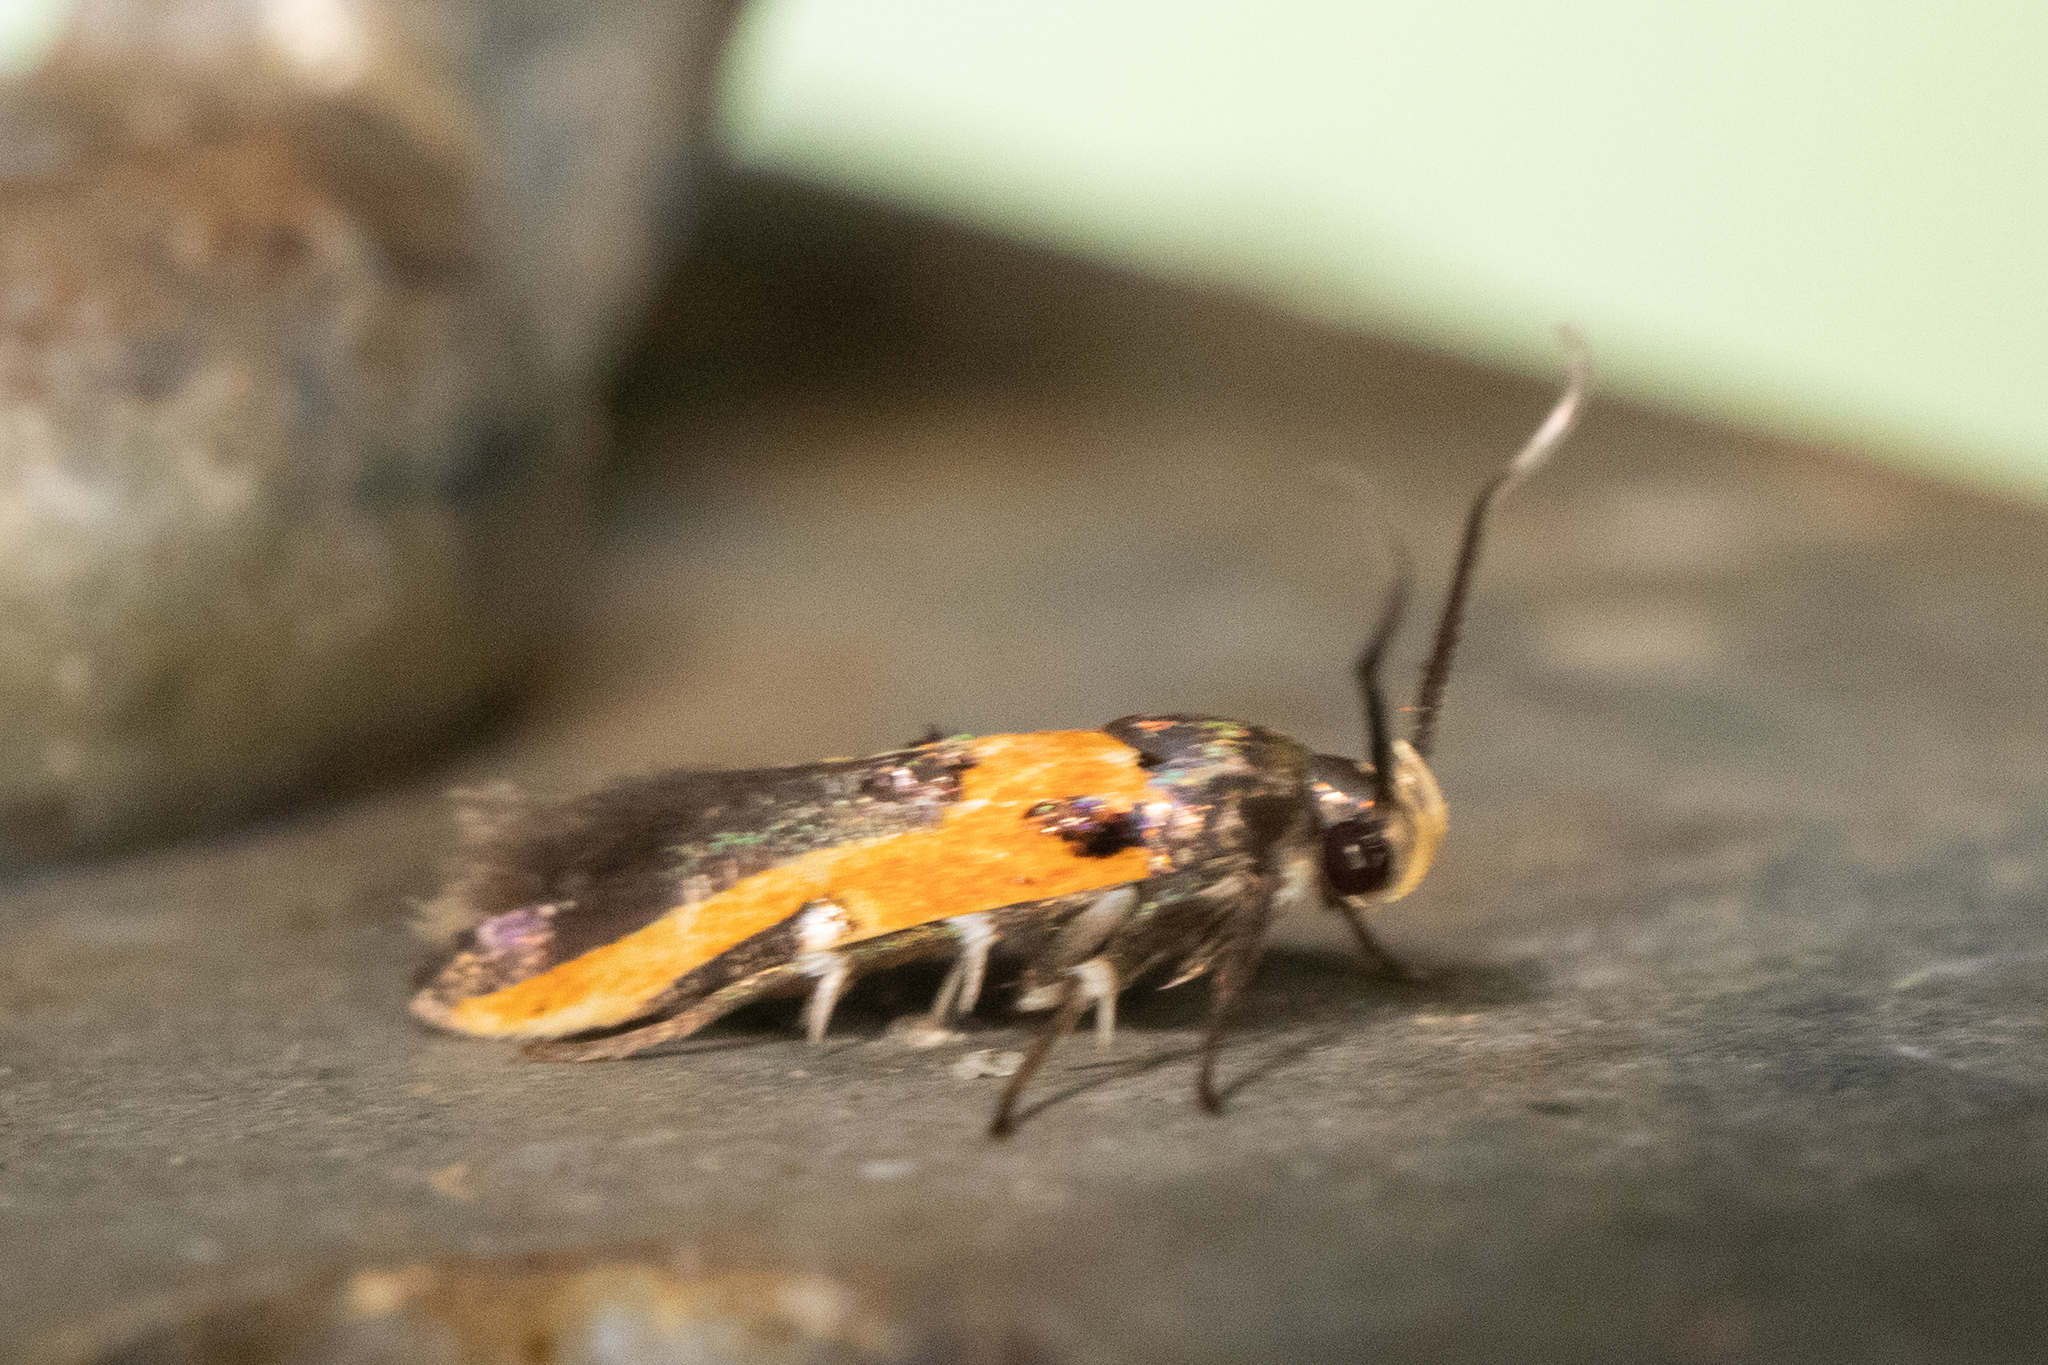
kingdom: Animalia
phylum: Arthropoda
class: Insecta
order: Lepidoptera
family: Cosmopterigidae
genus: Euclemensia
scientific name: Euclemensia bassettella
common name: Kermes scale moth
